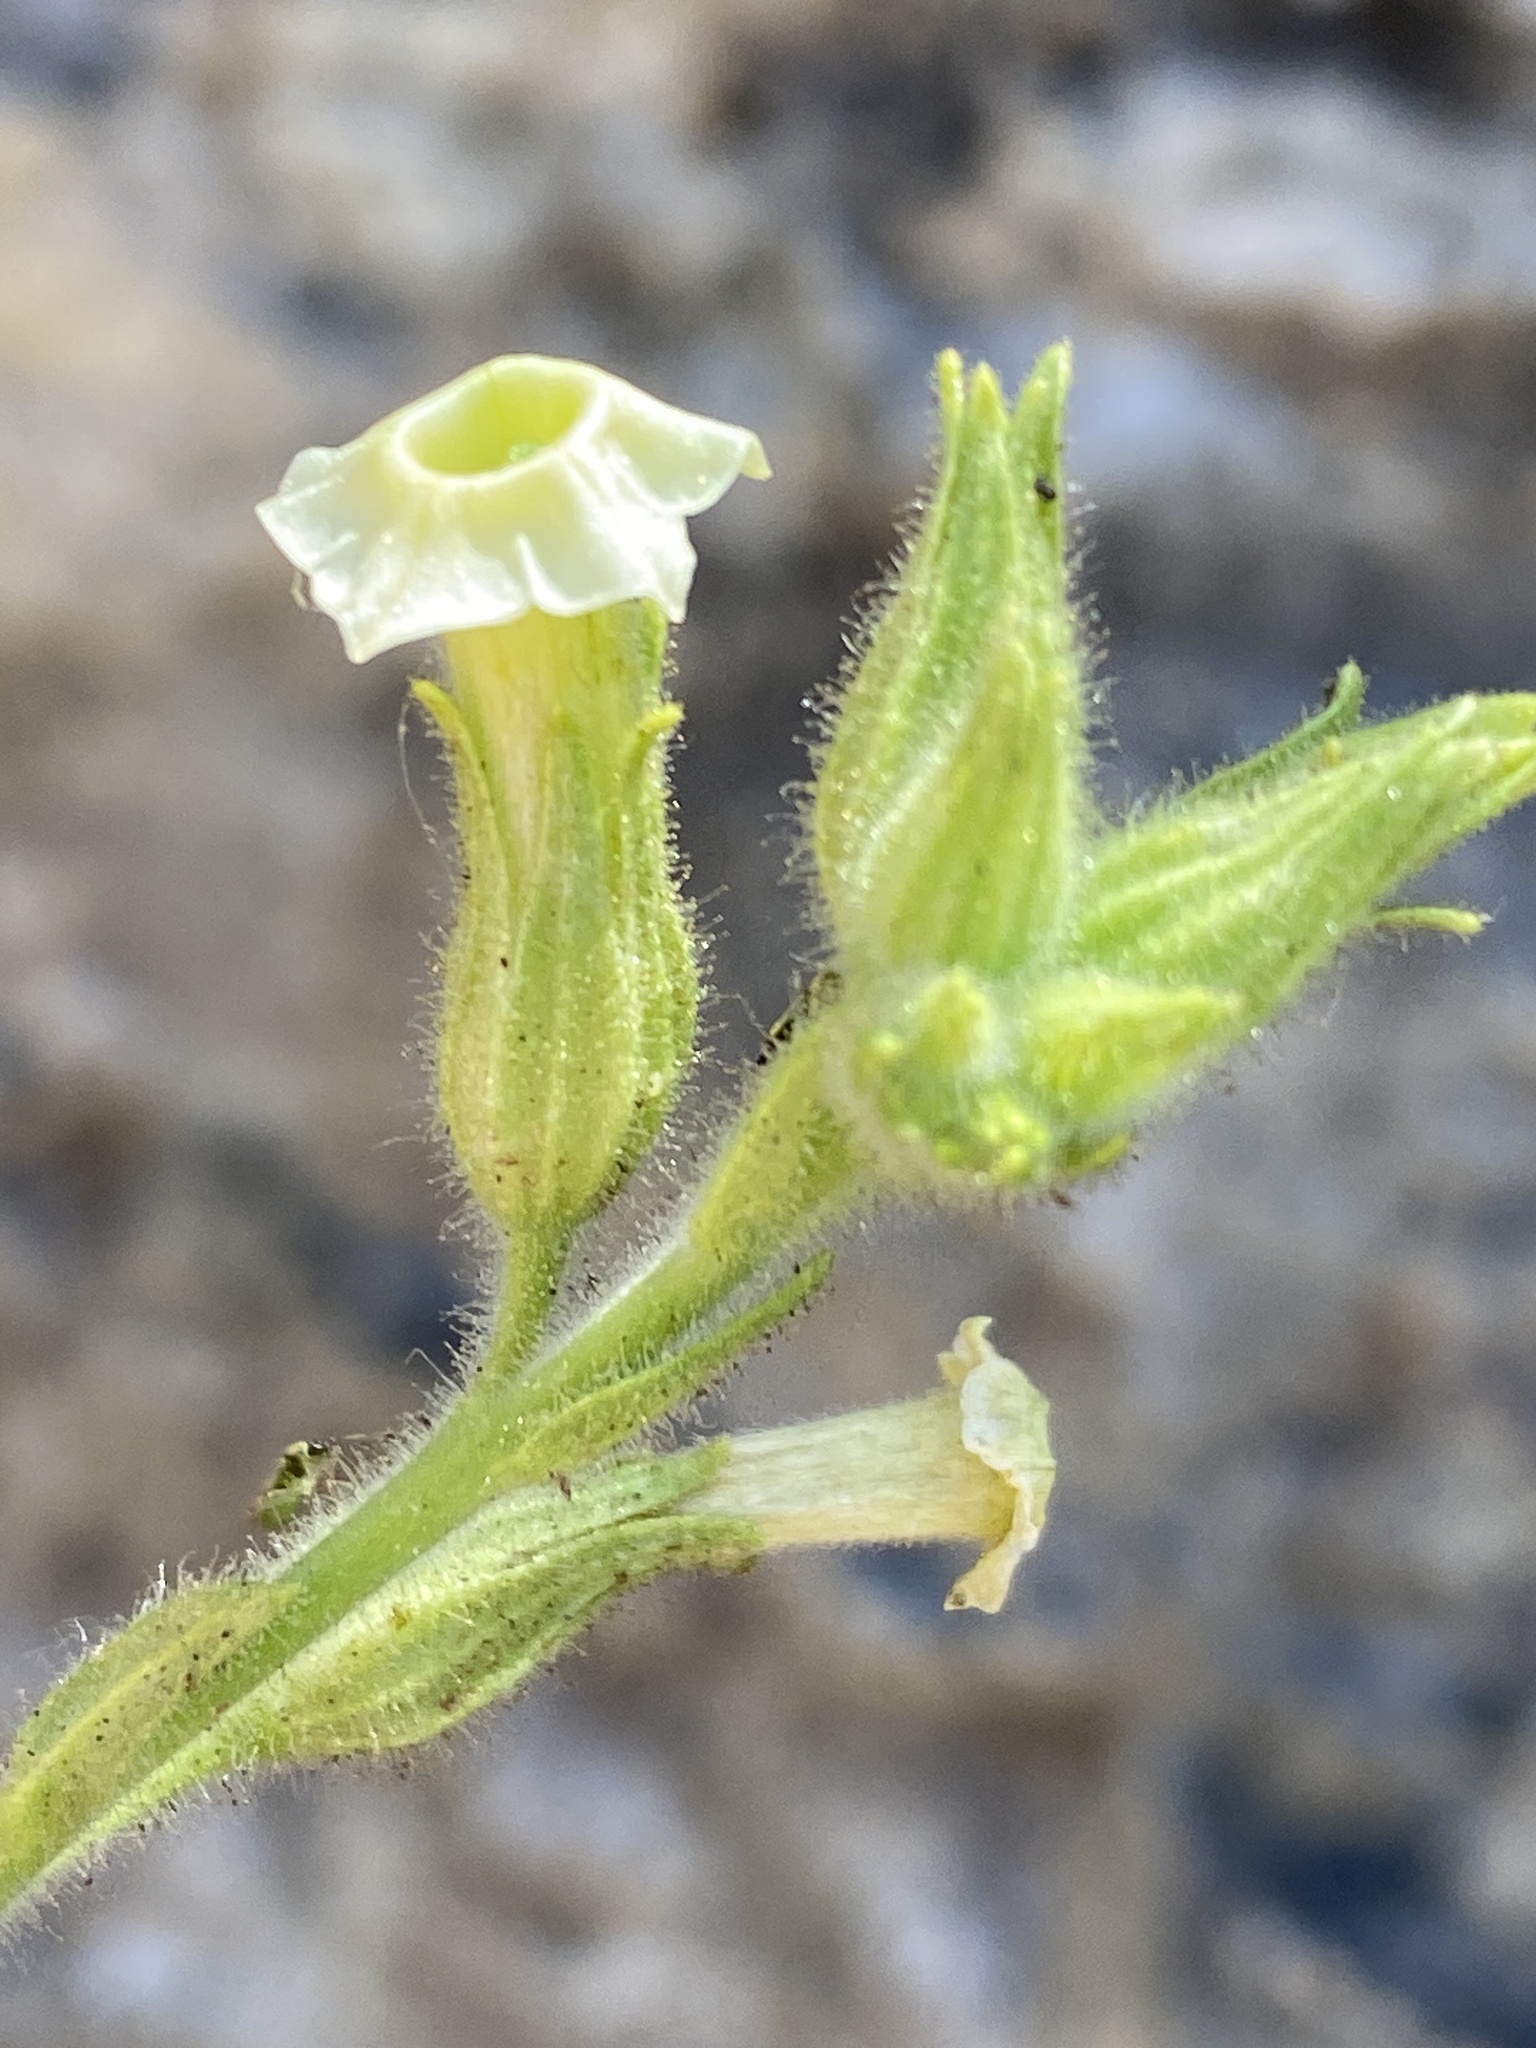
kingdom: Plantae
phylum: Tracheophyta
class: Magnoliopsida
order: Solanales
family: Solanaceae
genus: Nicotiana
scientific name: Nicotiana obtusifolia
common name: Desert tobacco
